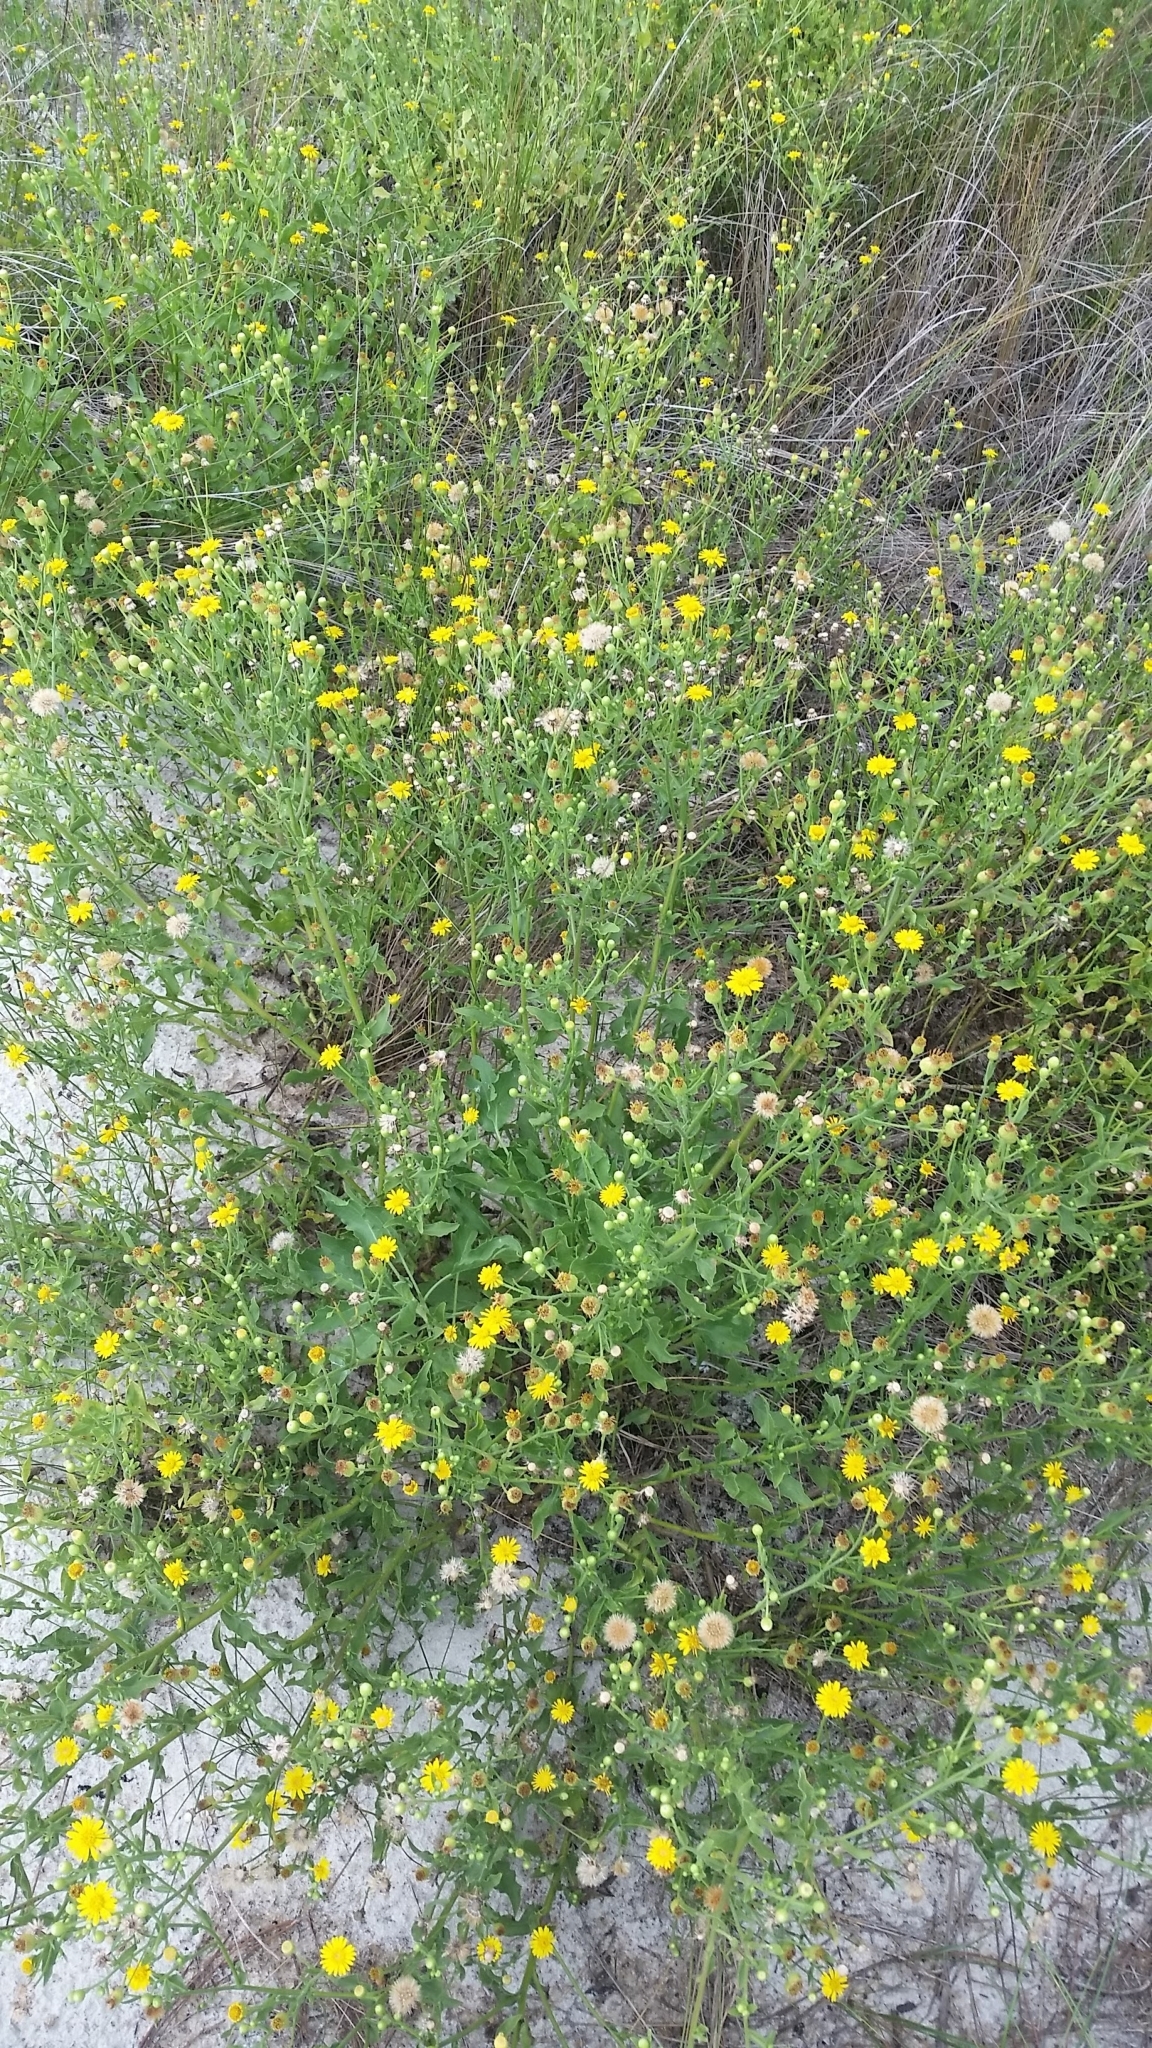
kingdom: Plantae
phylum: Tracheophyta
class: Magnoliopsida
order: Asterales
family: Asteraceae
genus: Heterotheca
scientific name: Heterotheca subaxillaris
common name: Camphorweed
